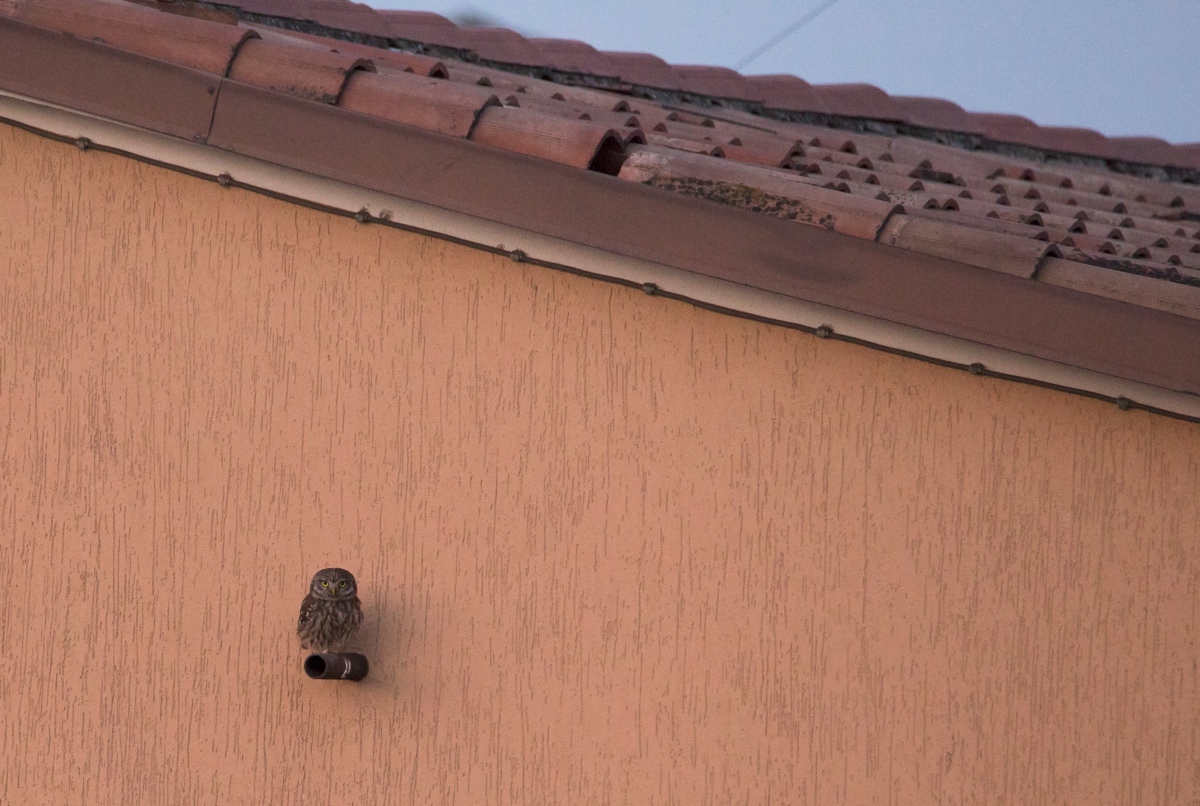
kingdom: Animalia
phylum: Chordata
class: Aves
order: Strigiformes
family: Strigidae
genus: Athene
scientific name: Athene noctua
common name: Little owl
